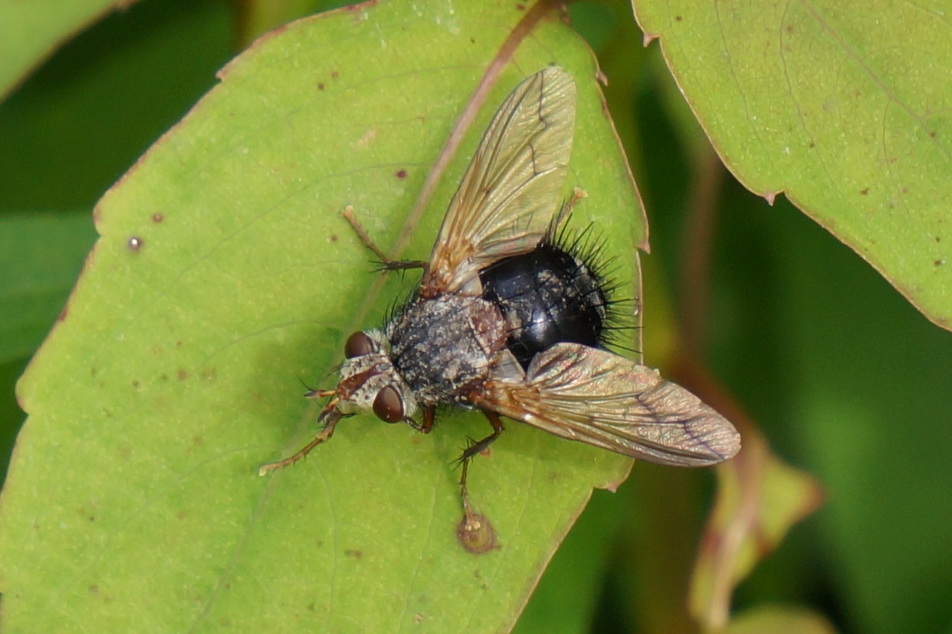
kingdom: Animalia
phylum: Arthropoda
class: Insecta
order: Diptera
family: Tachinidae
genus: Epalpus
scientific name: Epalpus signifer
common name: Early tachinid fly
